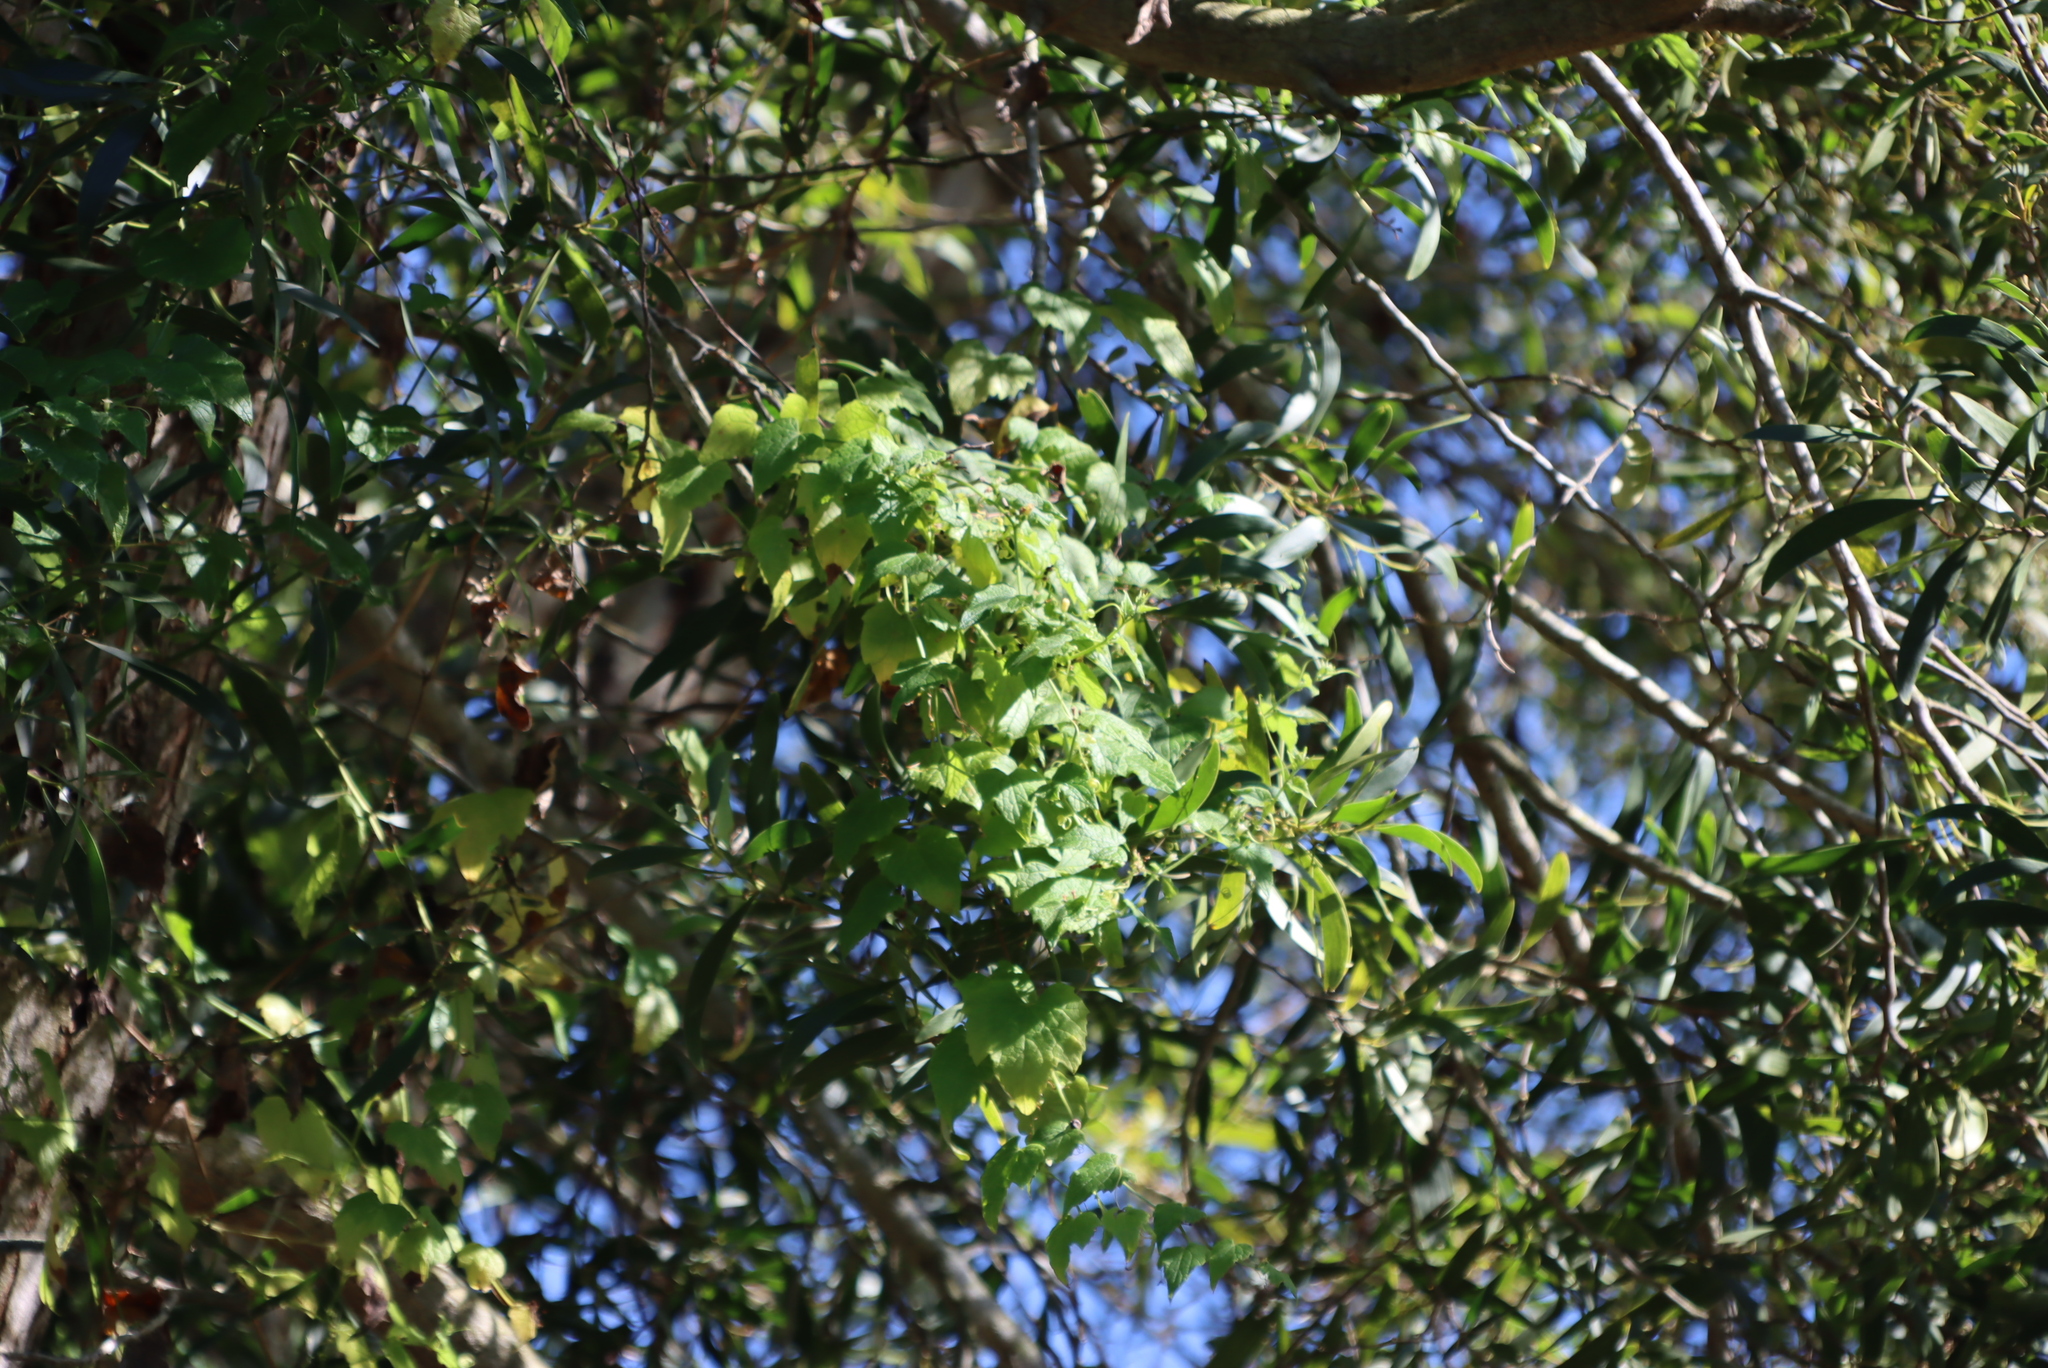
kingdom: Plantae
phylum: Tracheophyta
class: Magnoliopsida
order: Ranunculales
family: Ranunculaceae
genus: Clematis
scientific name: Clematis brachiata
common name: Traveler's-joy
